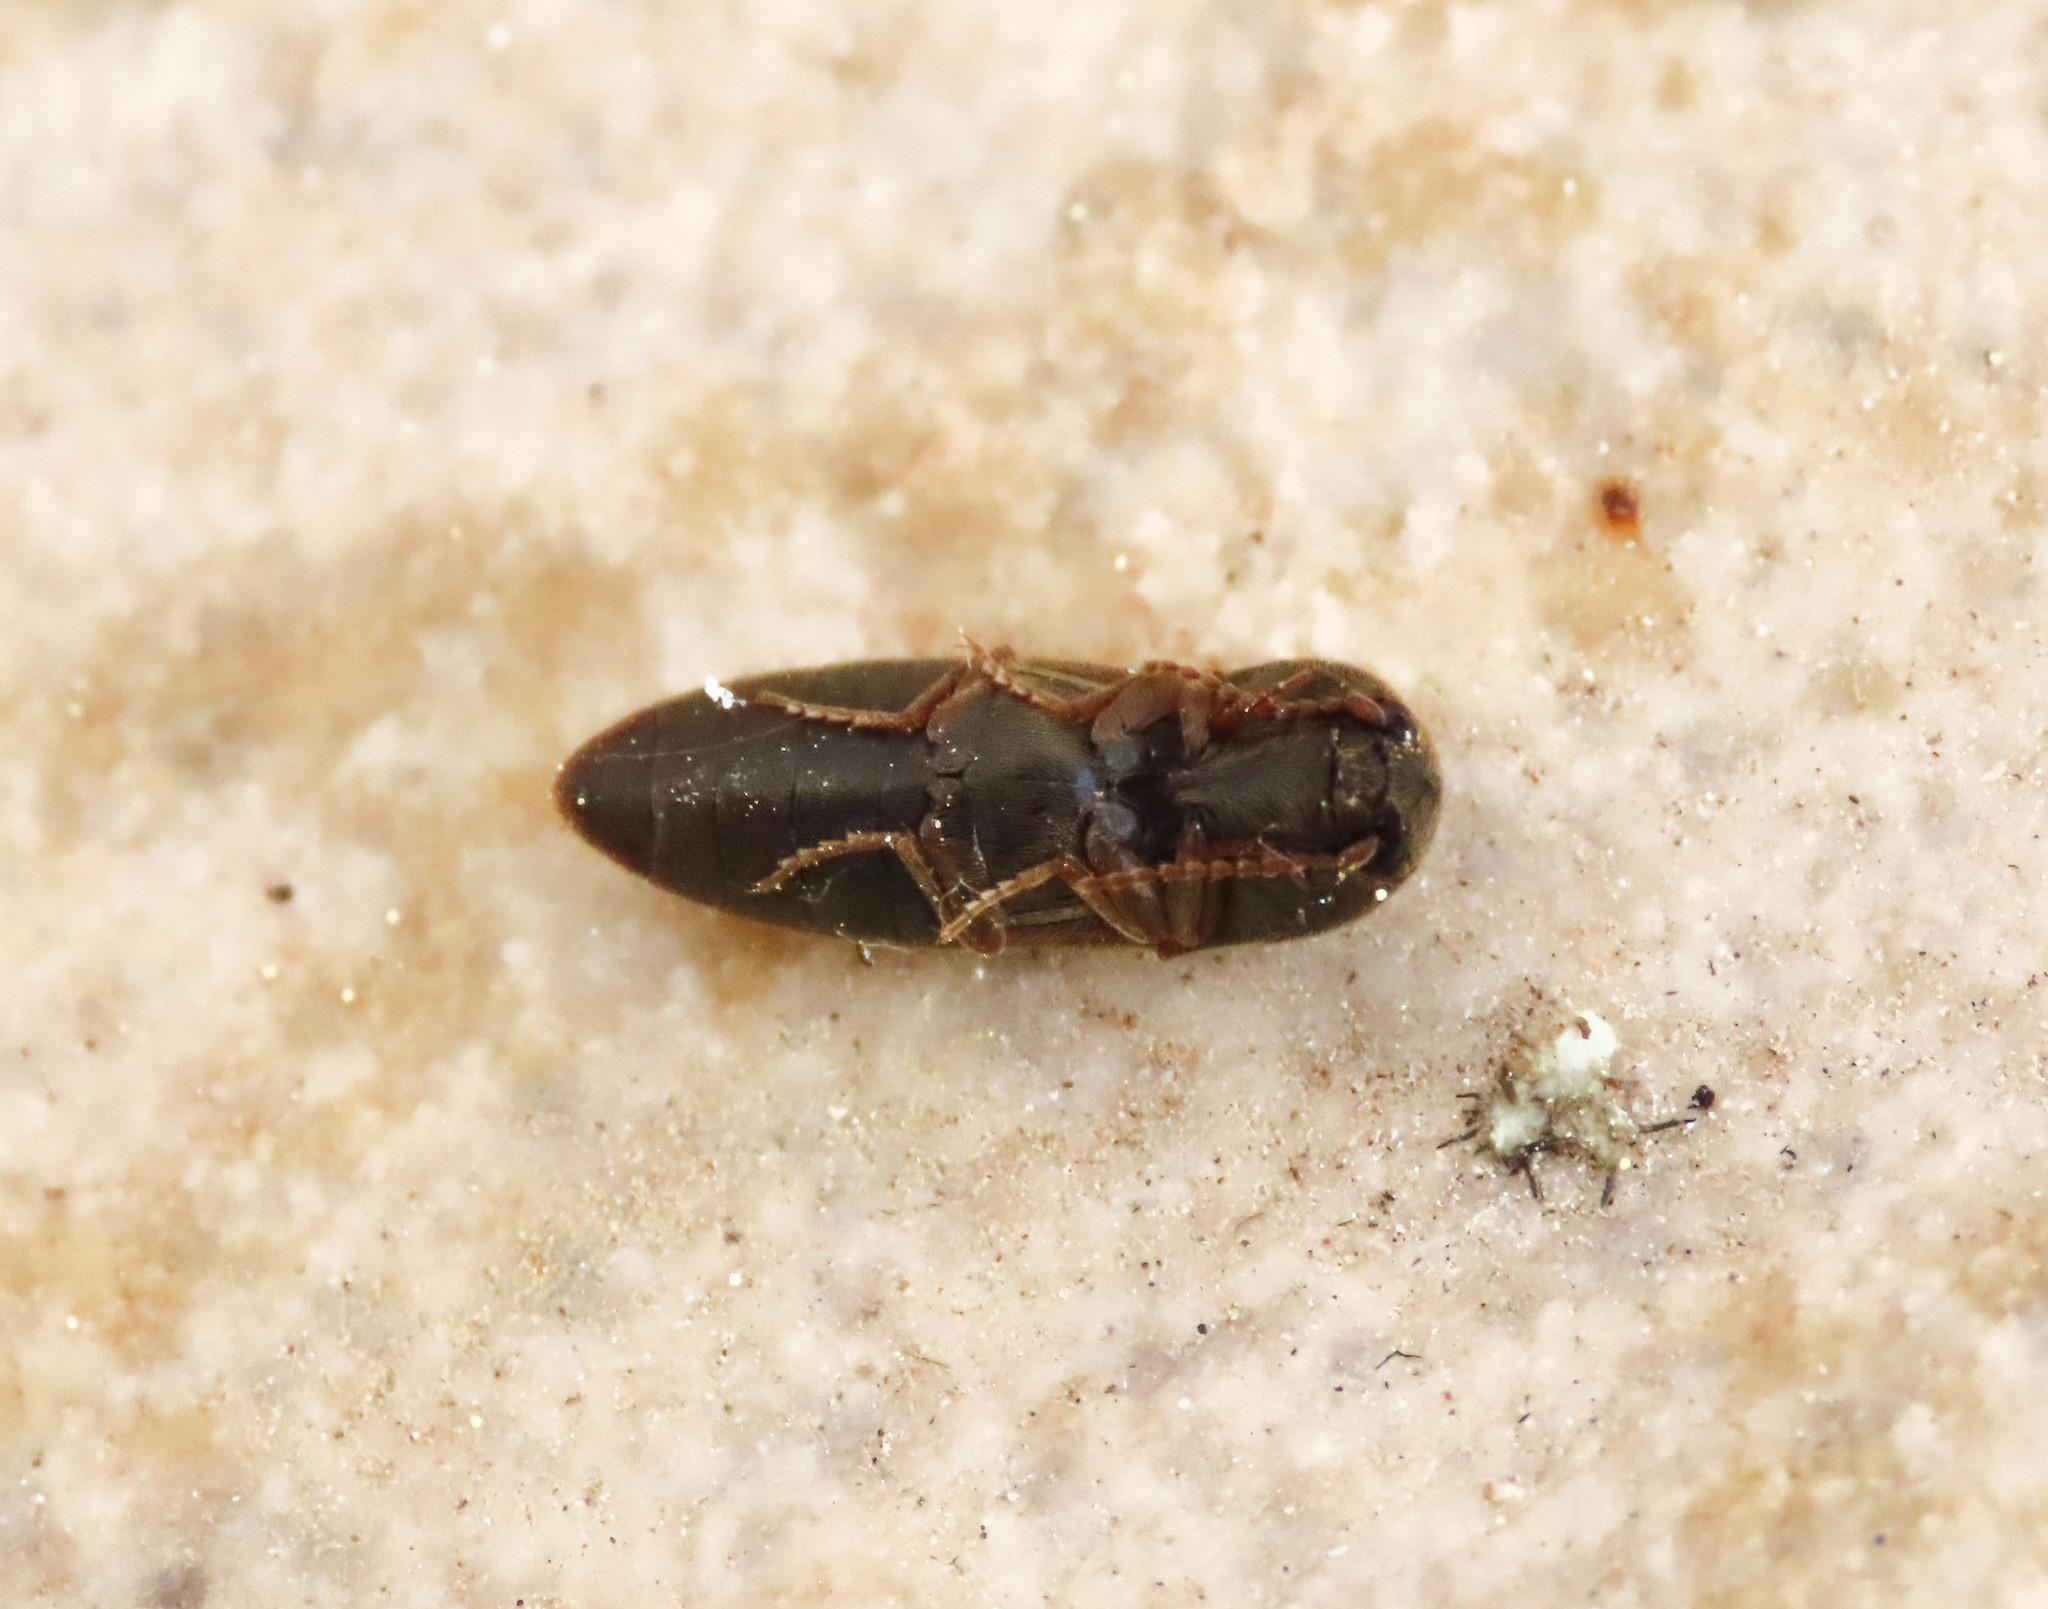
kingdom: Animalia
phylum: Arthropoda
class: Insecta
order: Coleoptera
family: Elateridae
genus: Agriotes
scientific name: Agriotes brevis
